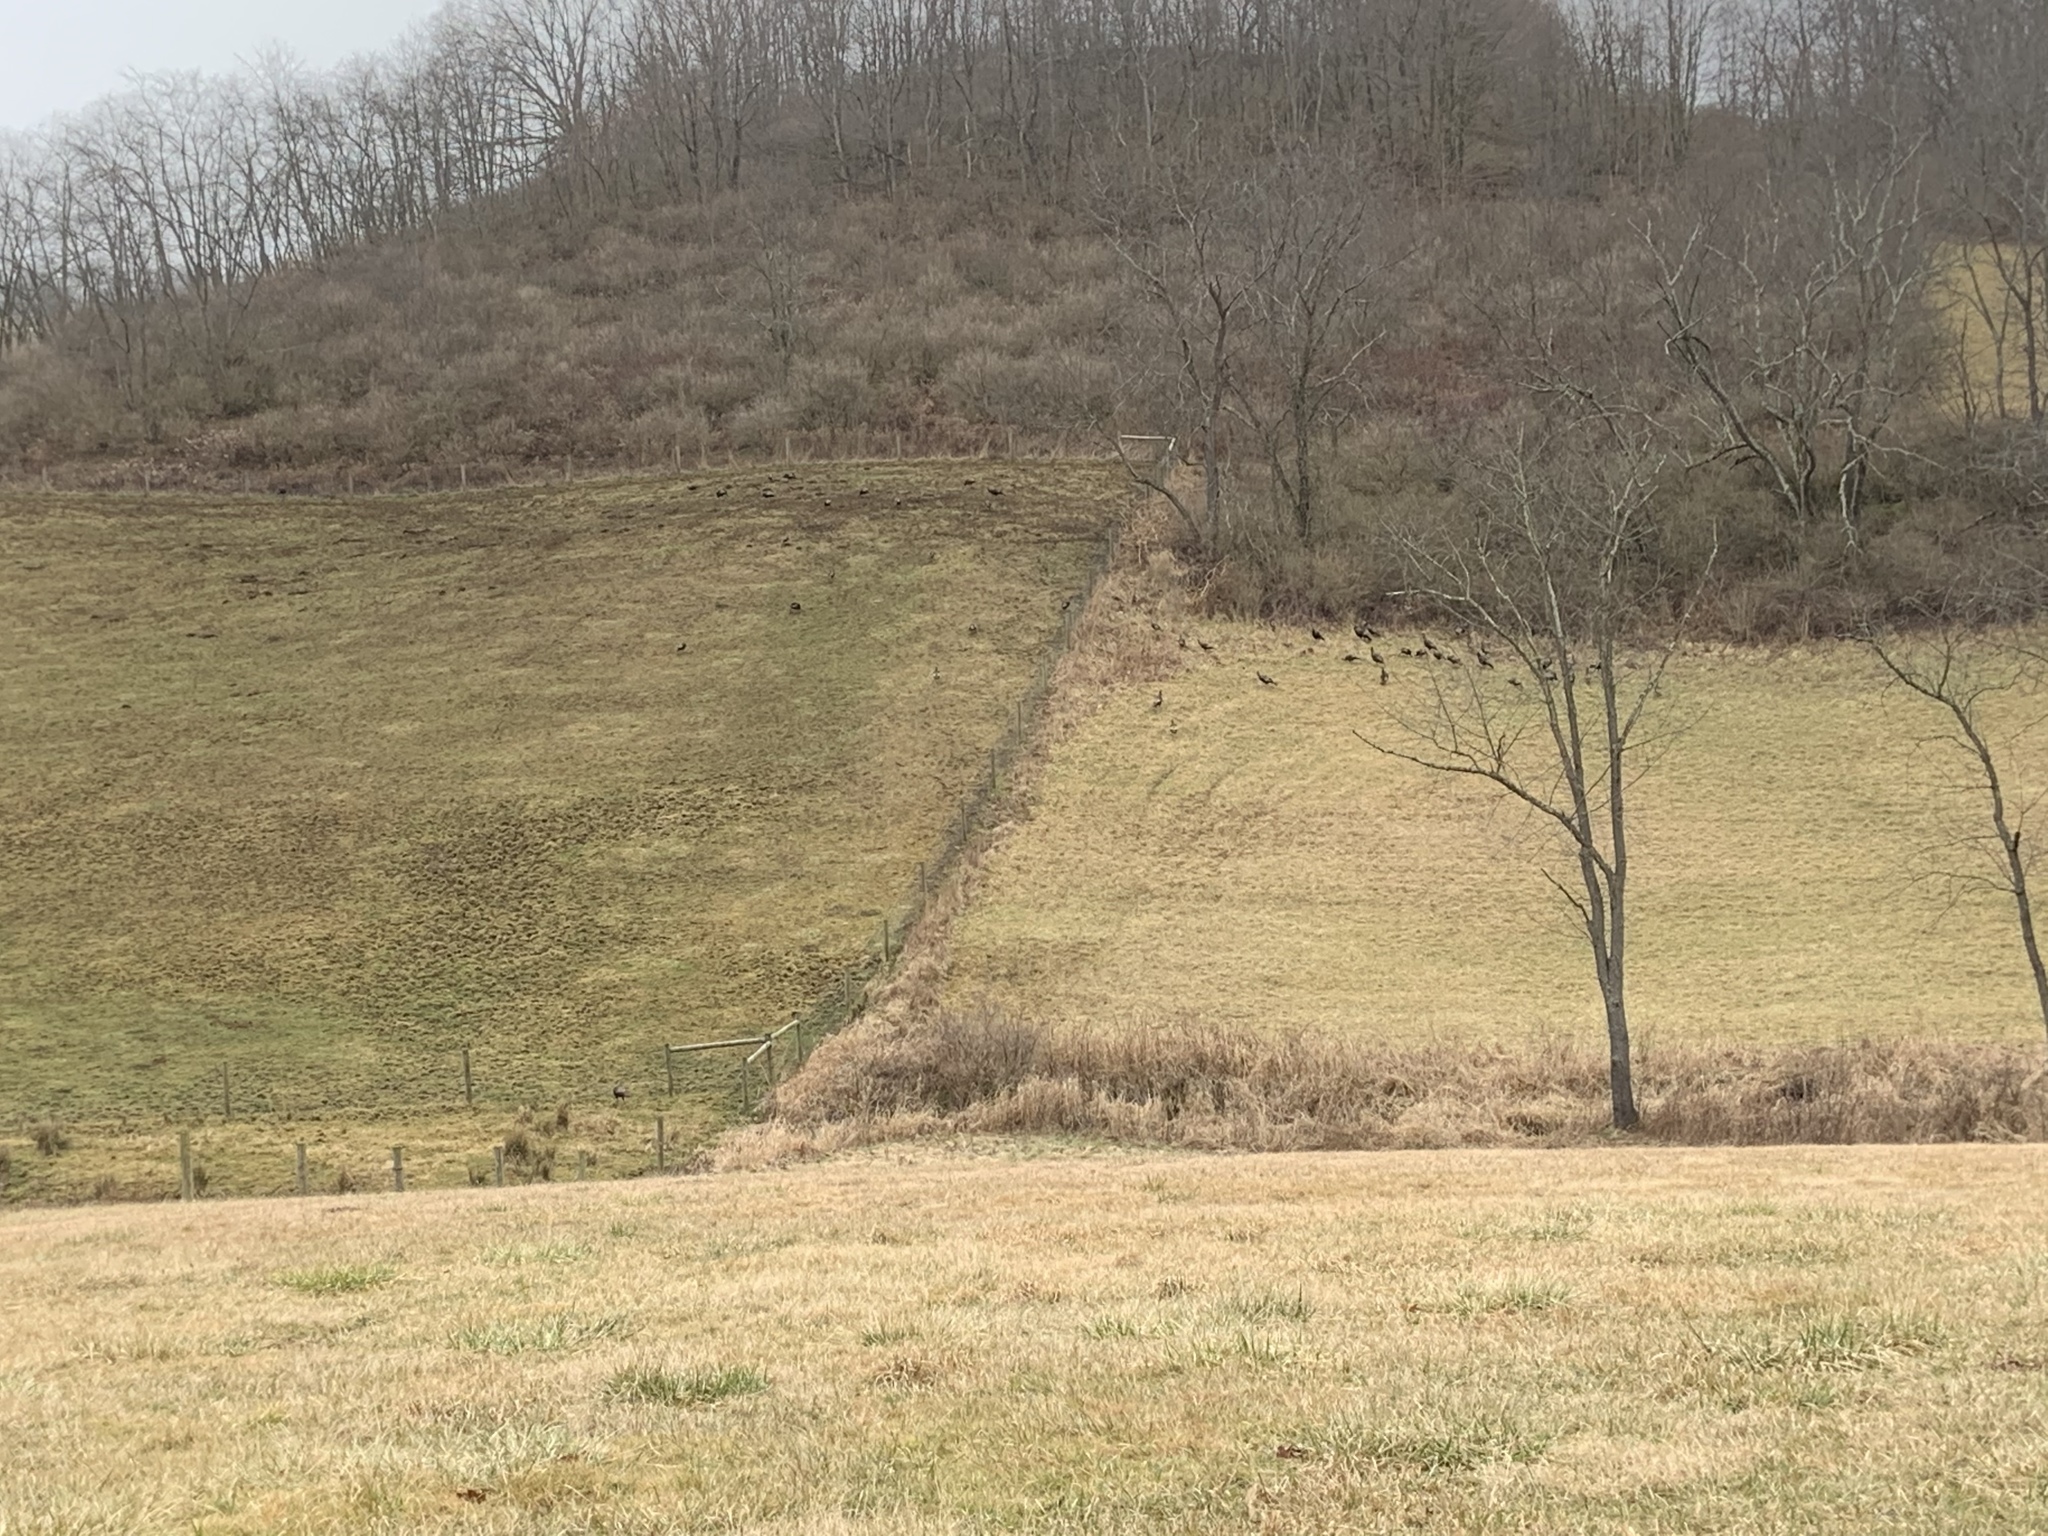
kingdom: Animalia
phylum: Chordata
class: Aves
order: Galliformes
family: Phasianidae
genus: Meleagris
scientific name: Meleagris gallopavo
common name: Wild turkey
